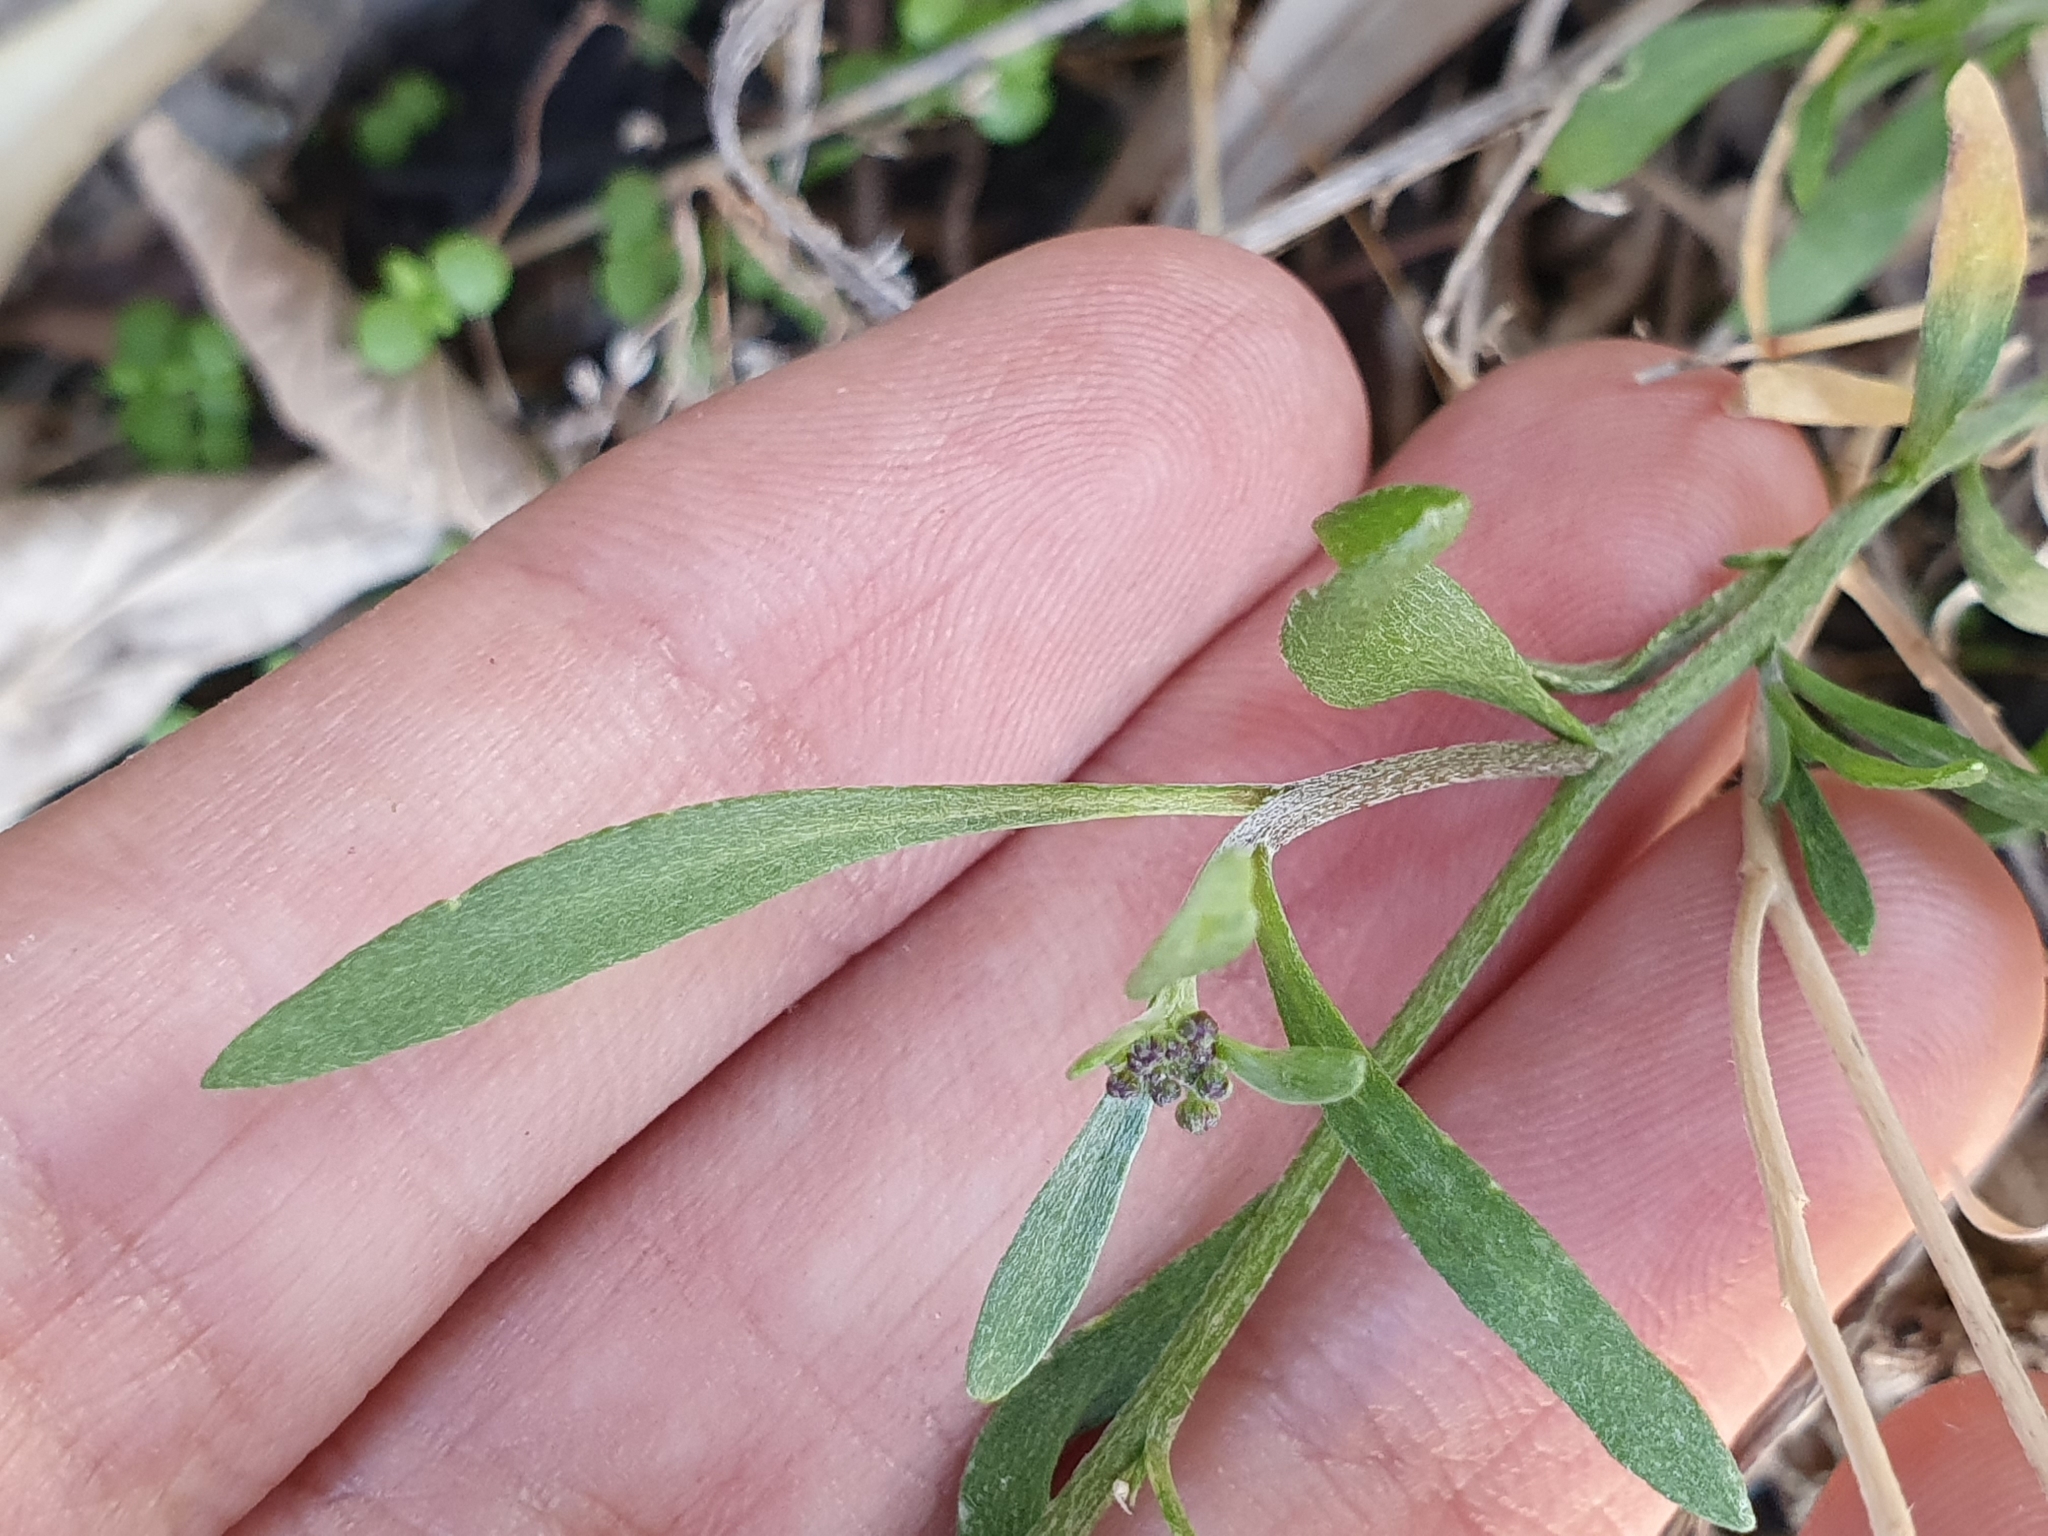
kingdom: Plantae
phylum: Tracheophyta
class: Magnoliopsida
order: Brassicales
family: Brassicaceae
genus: Lobularia
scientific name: Lobularia maritima
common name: Sweet alison
